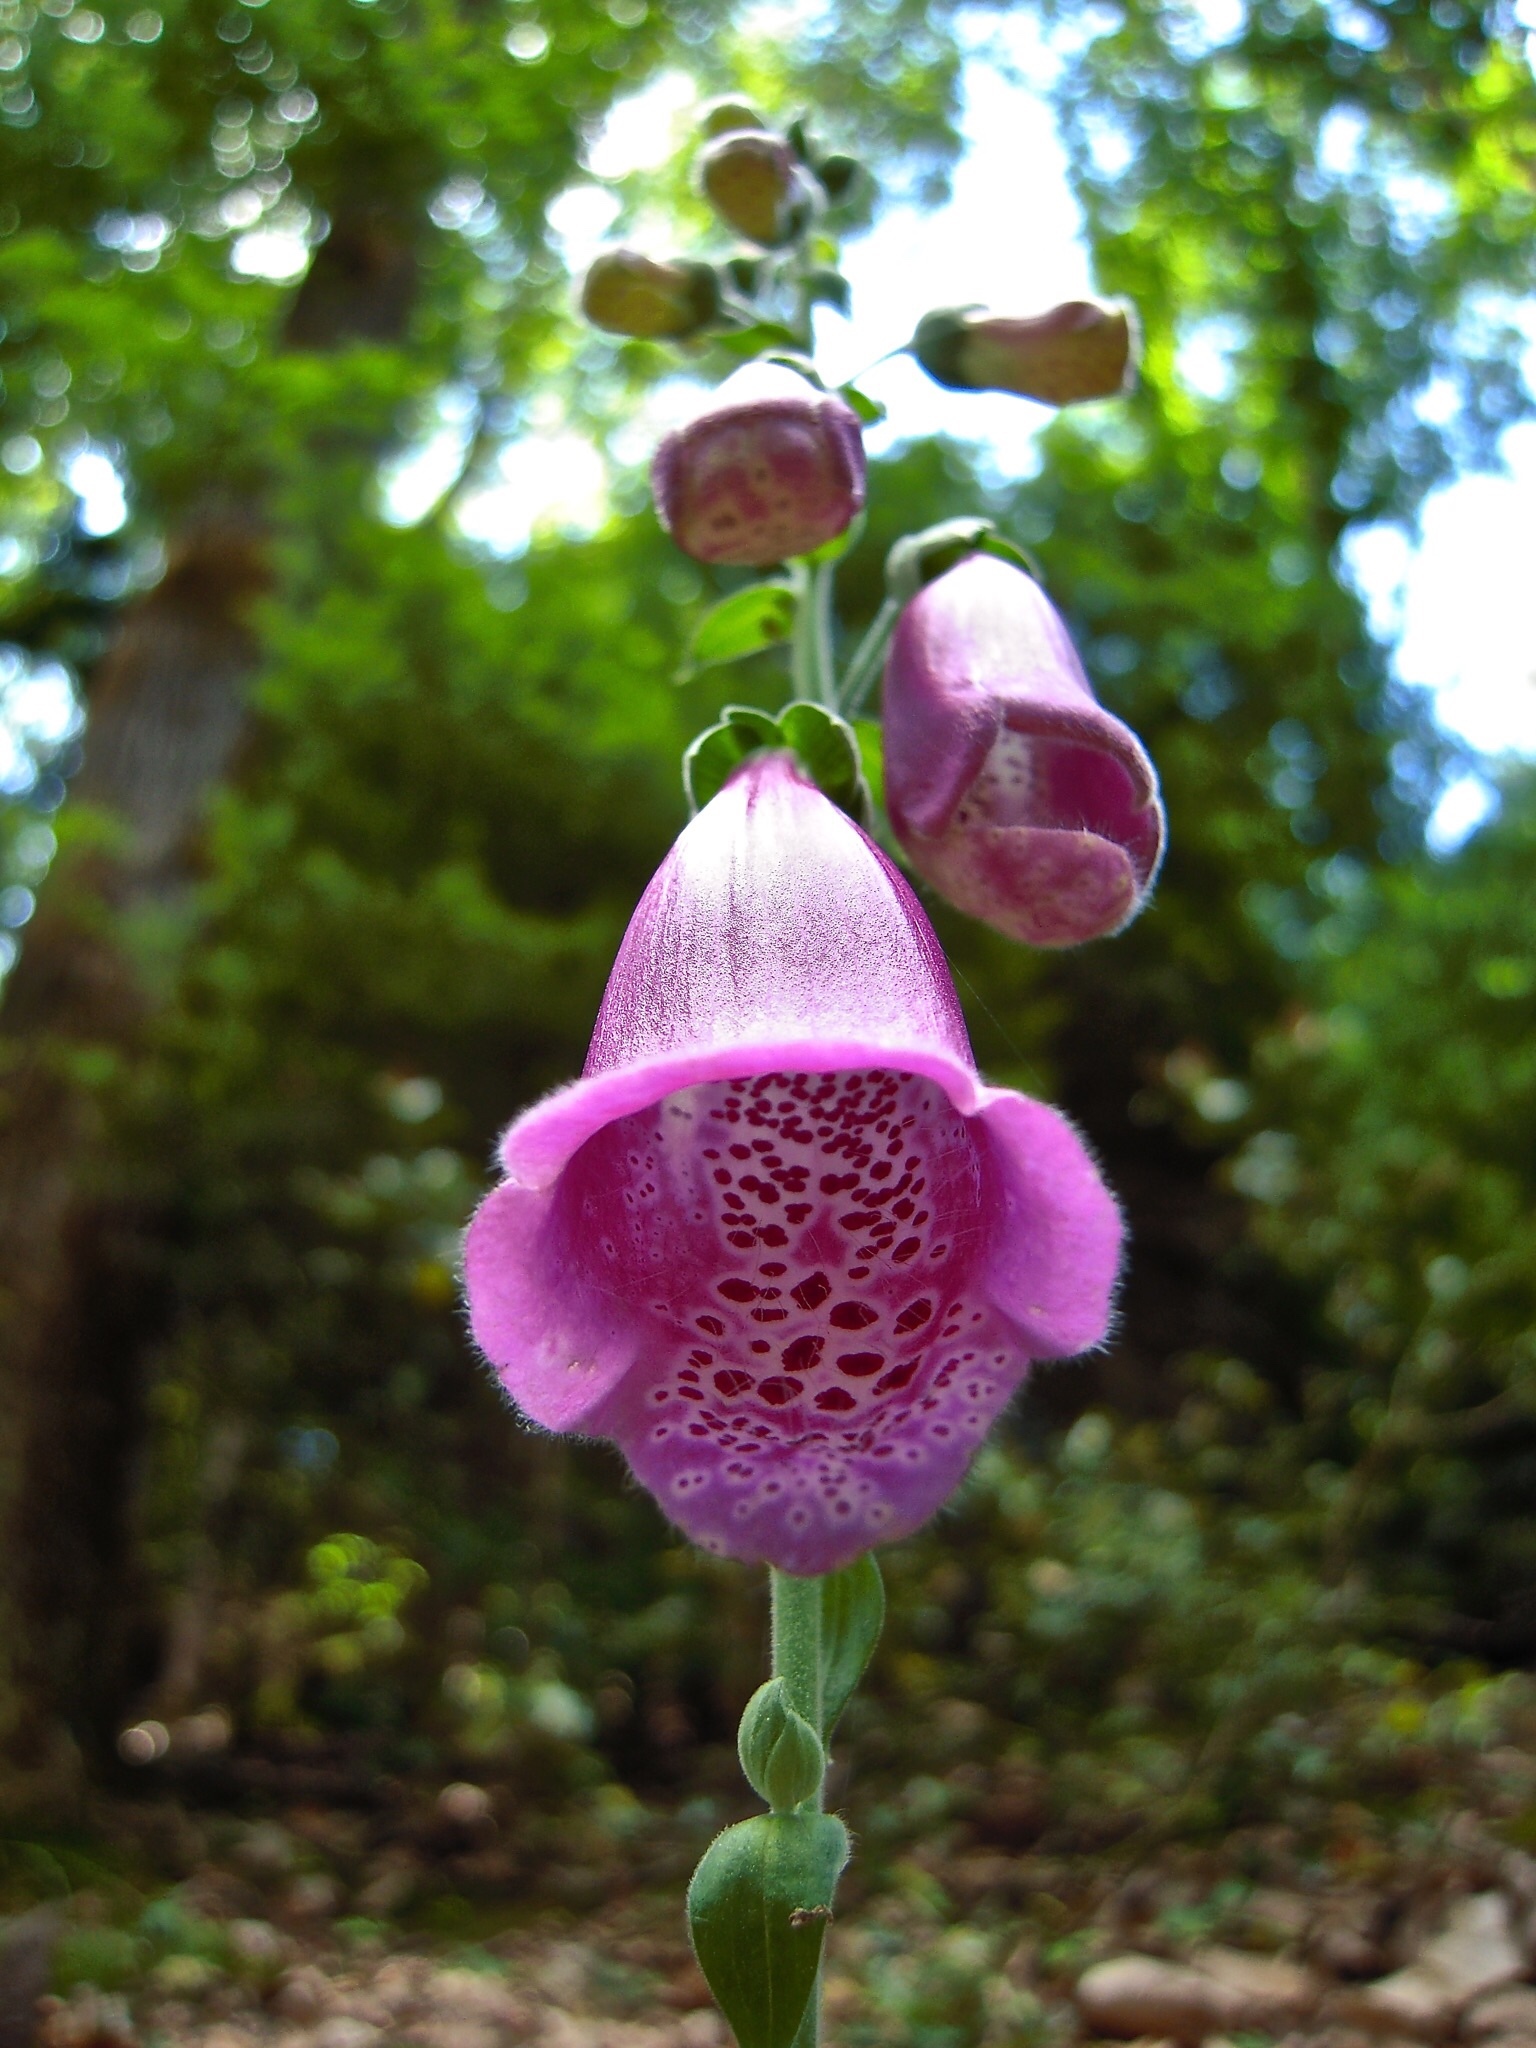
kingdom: Plantae
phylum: Tracheophyta
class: Magnoliopsida
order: Lamiales
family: Plantaginaceae
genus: Digitalis
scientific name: Digitalis purpurea
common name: Foxglove
